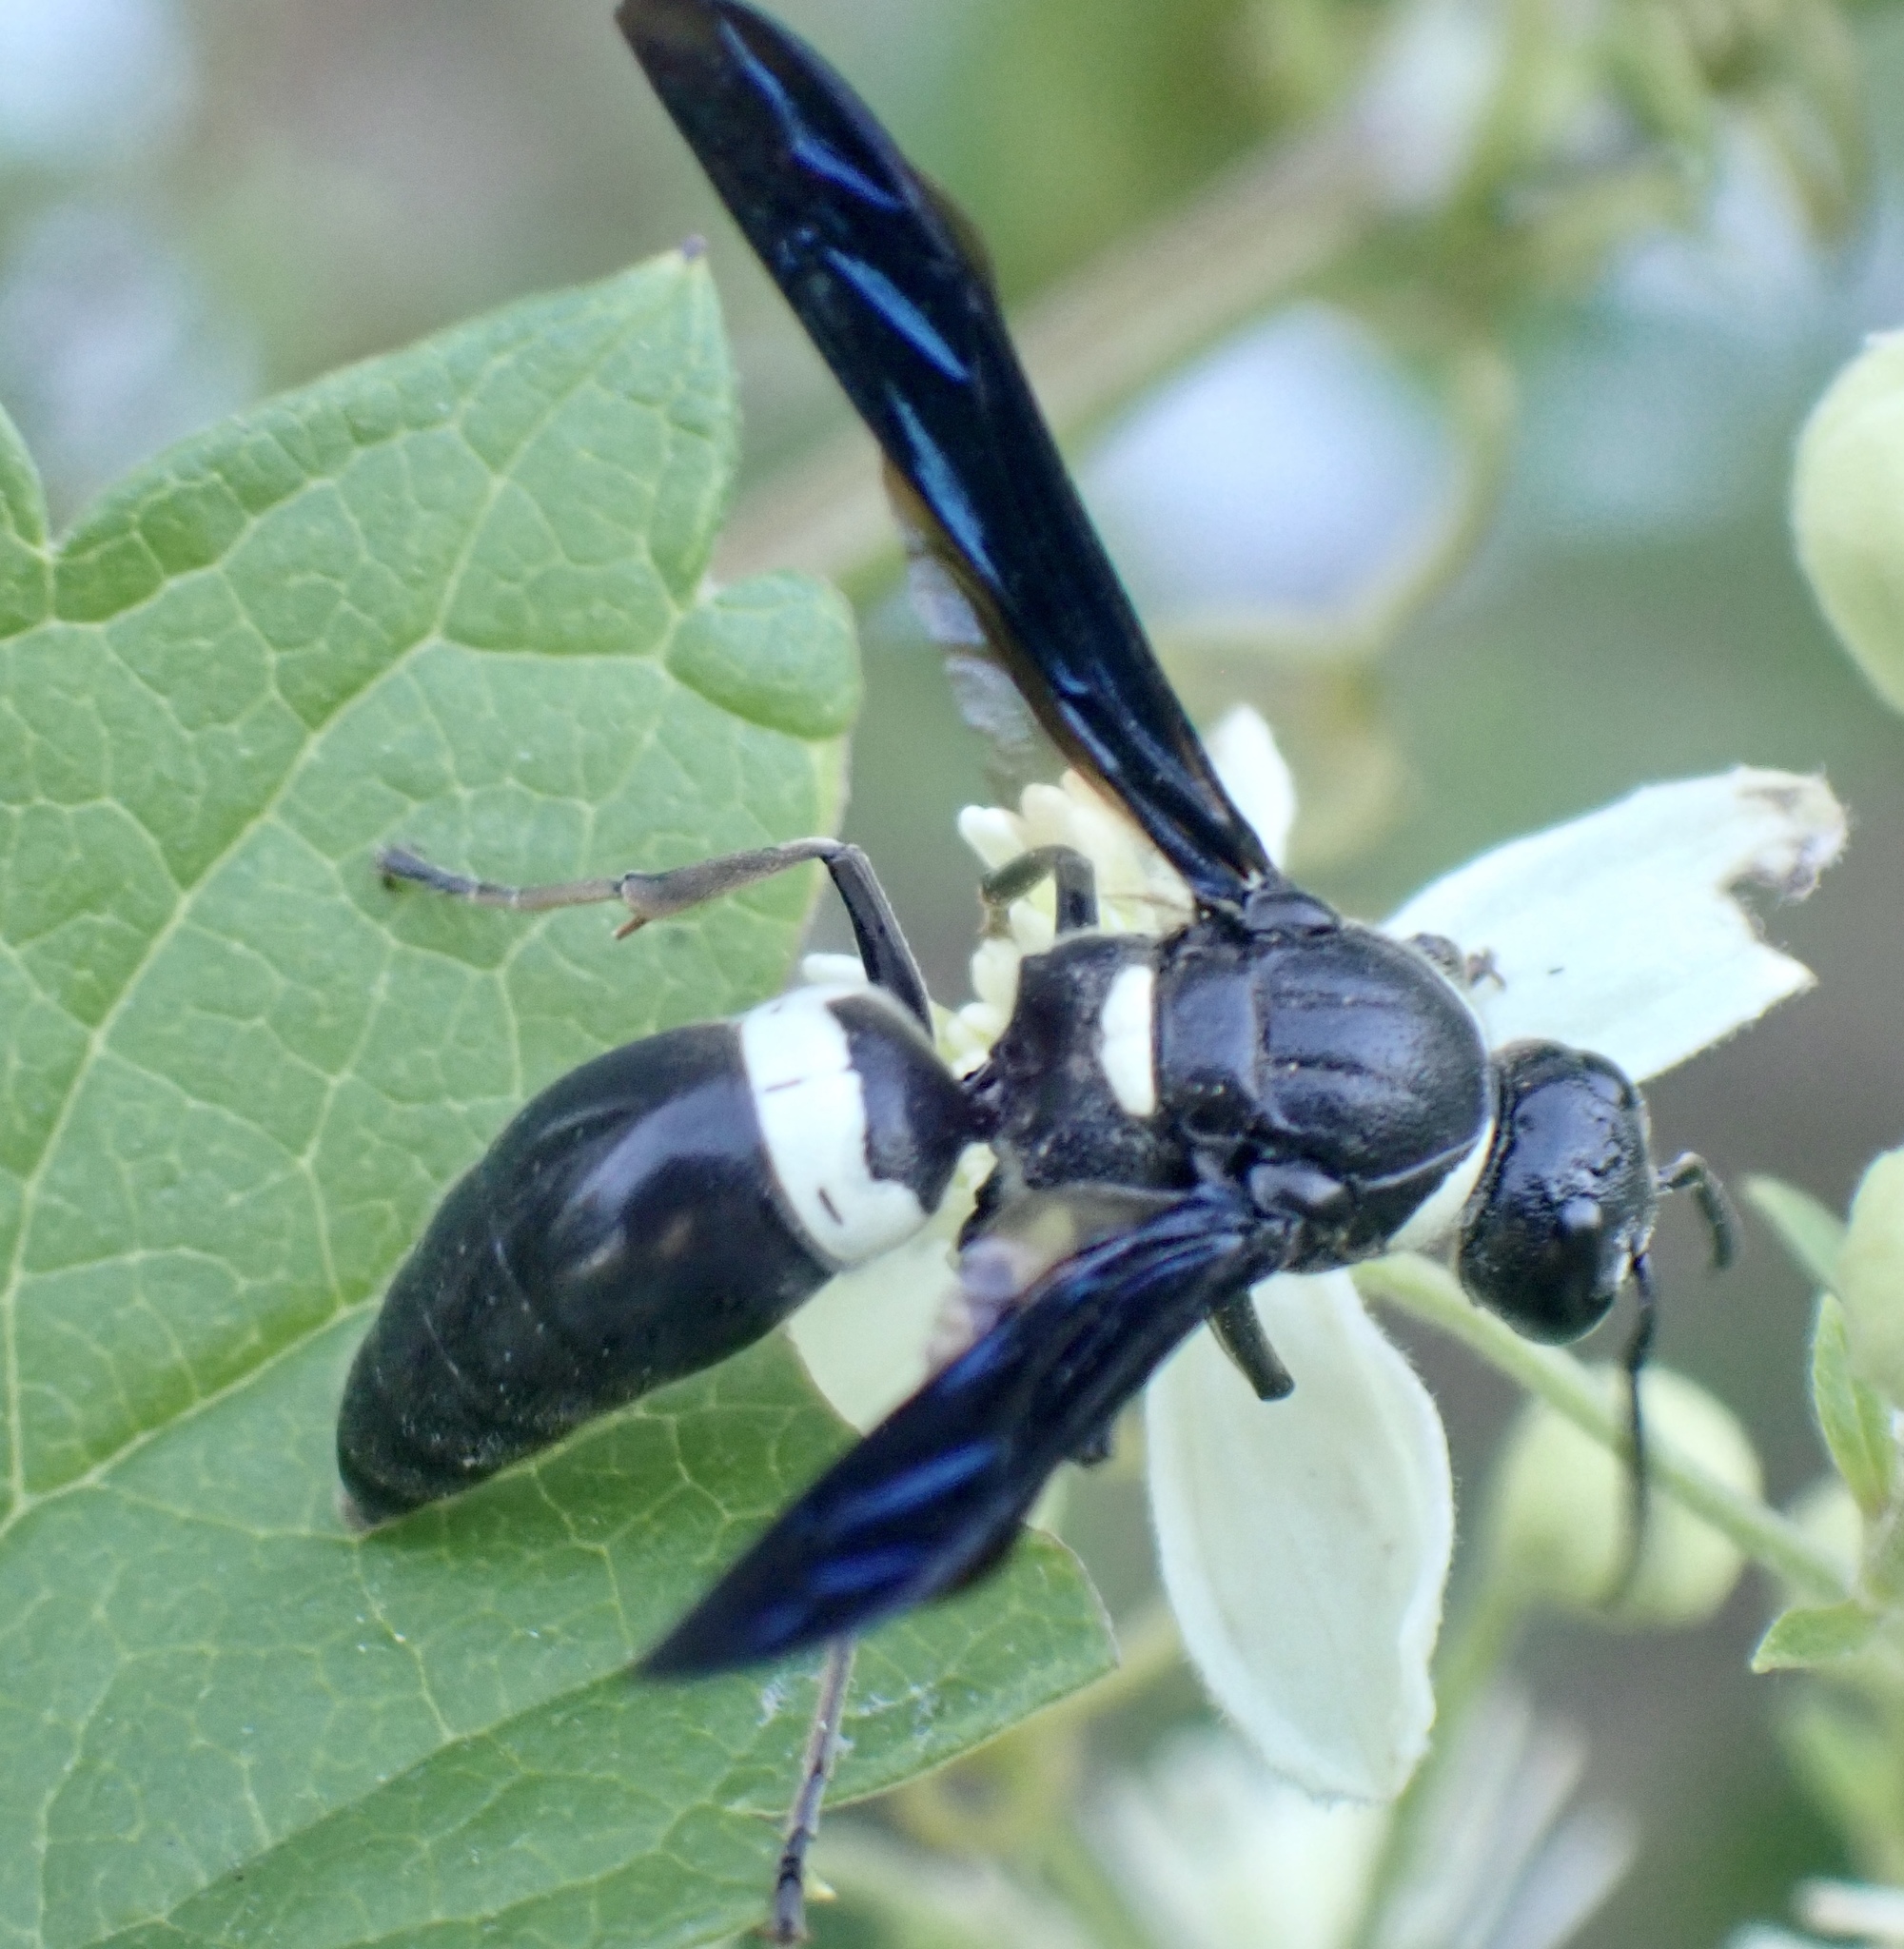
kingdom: Animalia
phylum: Arthropoda
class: Insecta
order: Hymenoptera
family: Eumenidae
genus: Monobia
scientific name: Monobia quadridens
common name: Four-toothed mason wasp
